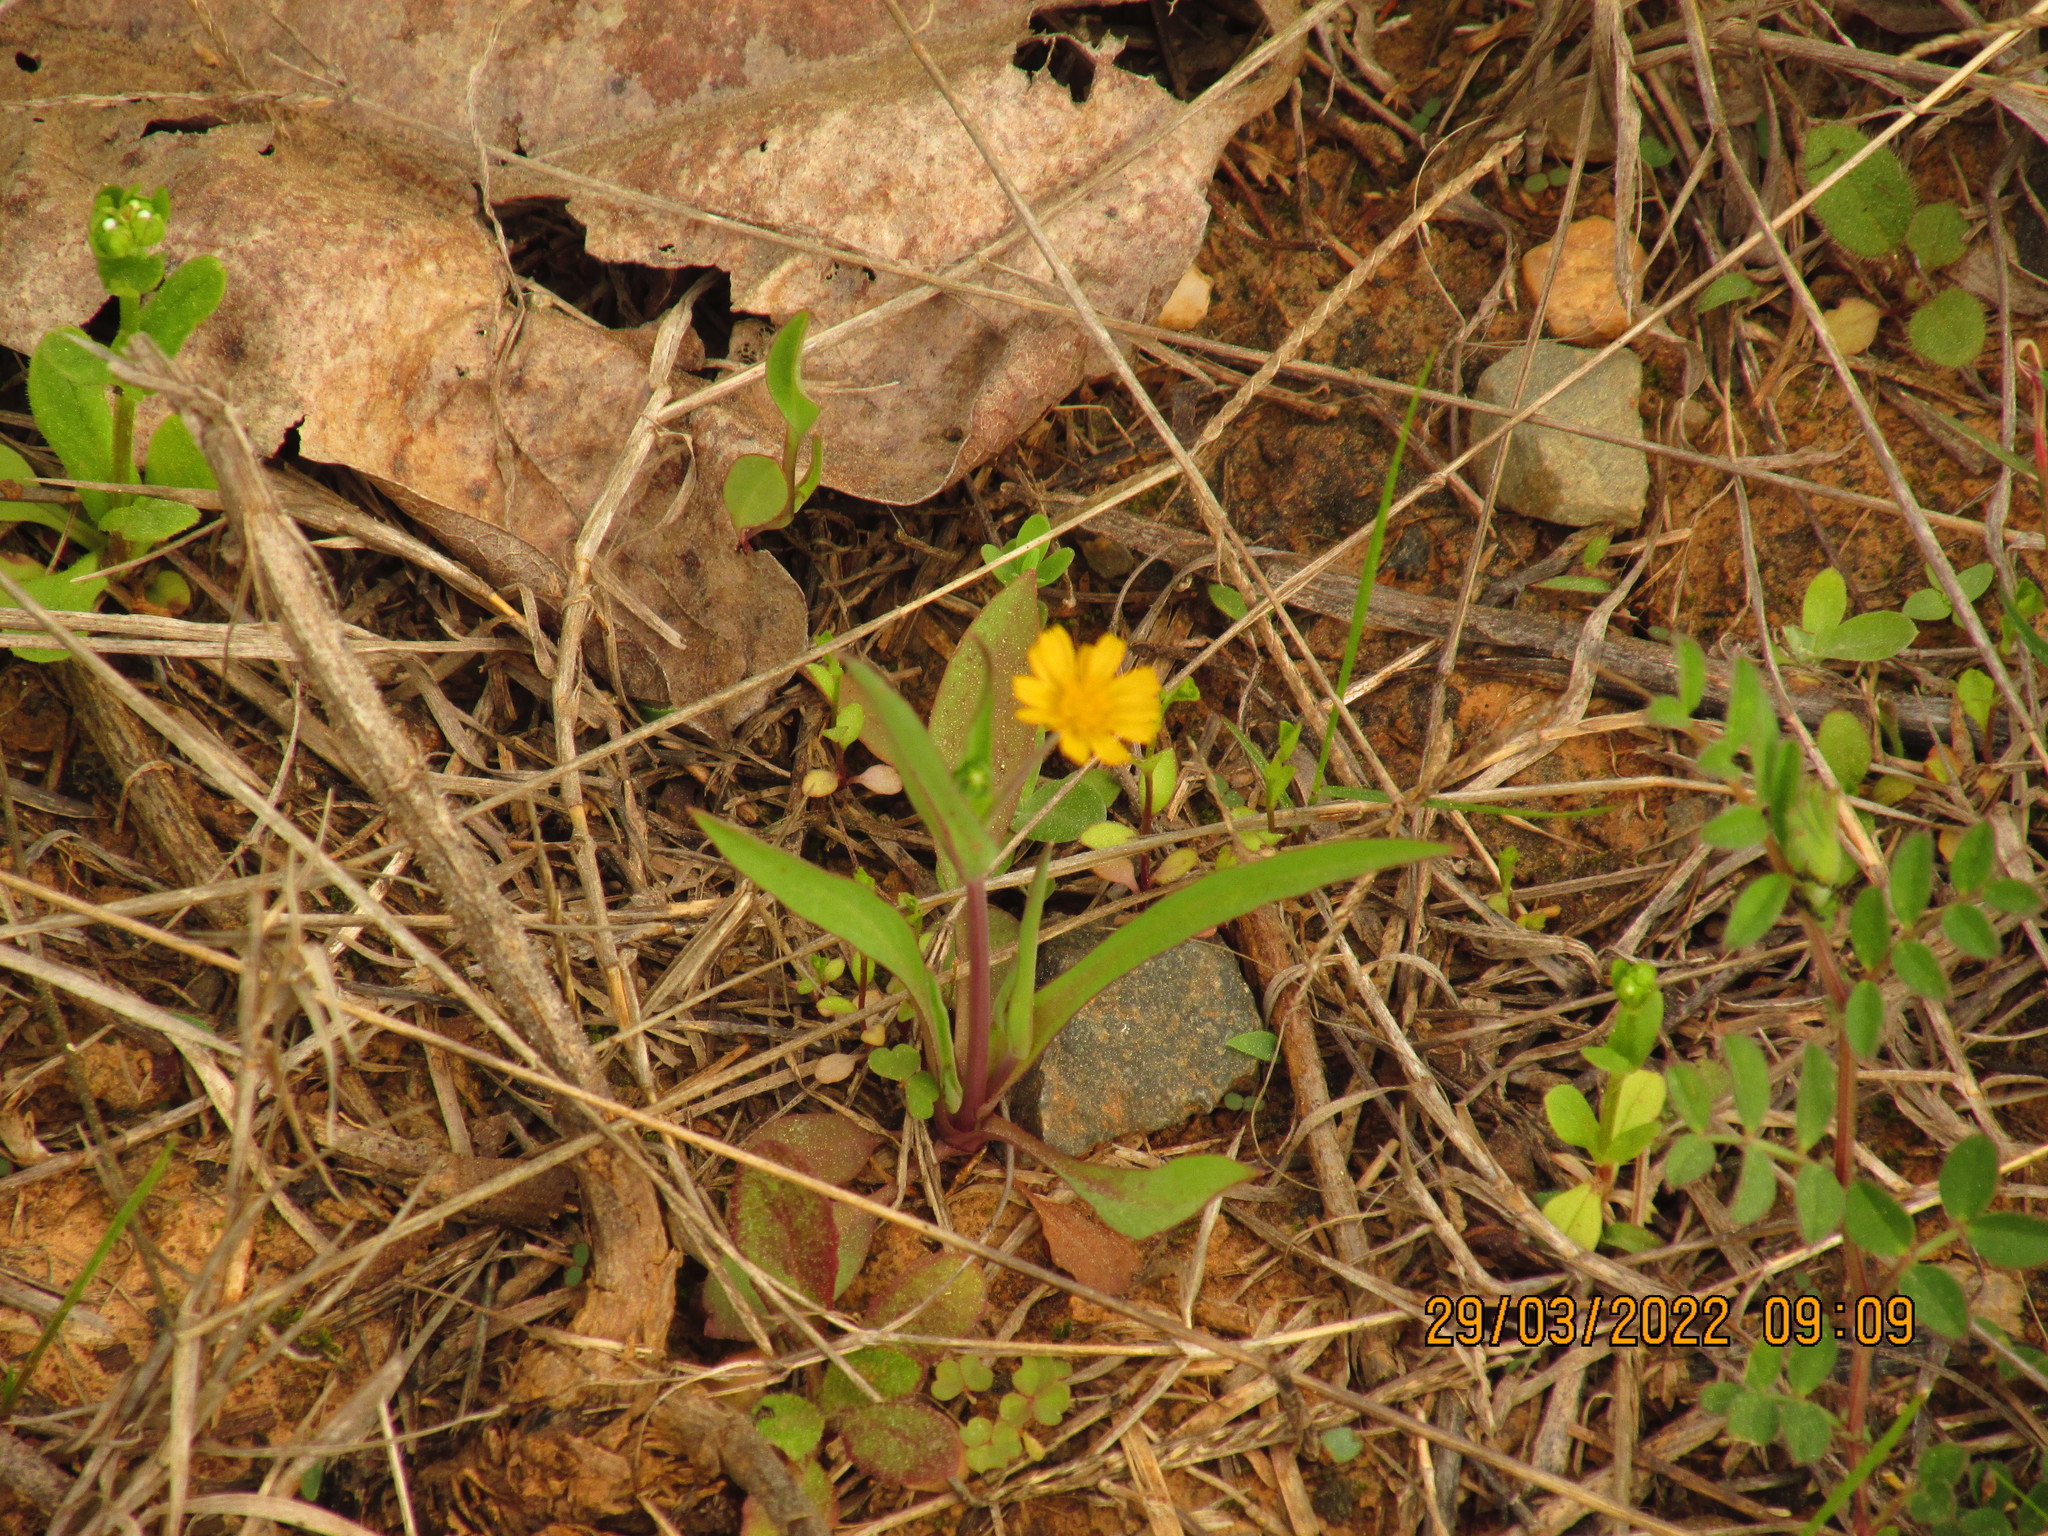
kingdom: Plantae
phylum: Tracheophyta
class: Magnoliopsida
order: Asterales
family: Asteraceae
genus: Krigia
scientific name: Krigia cespitosa
